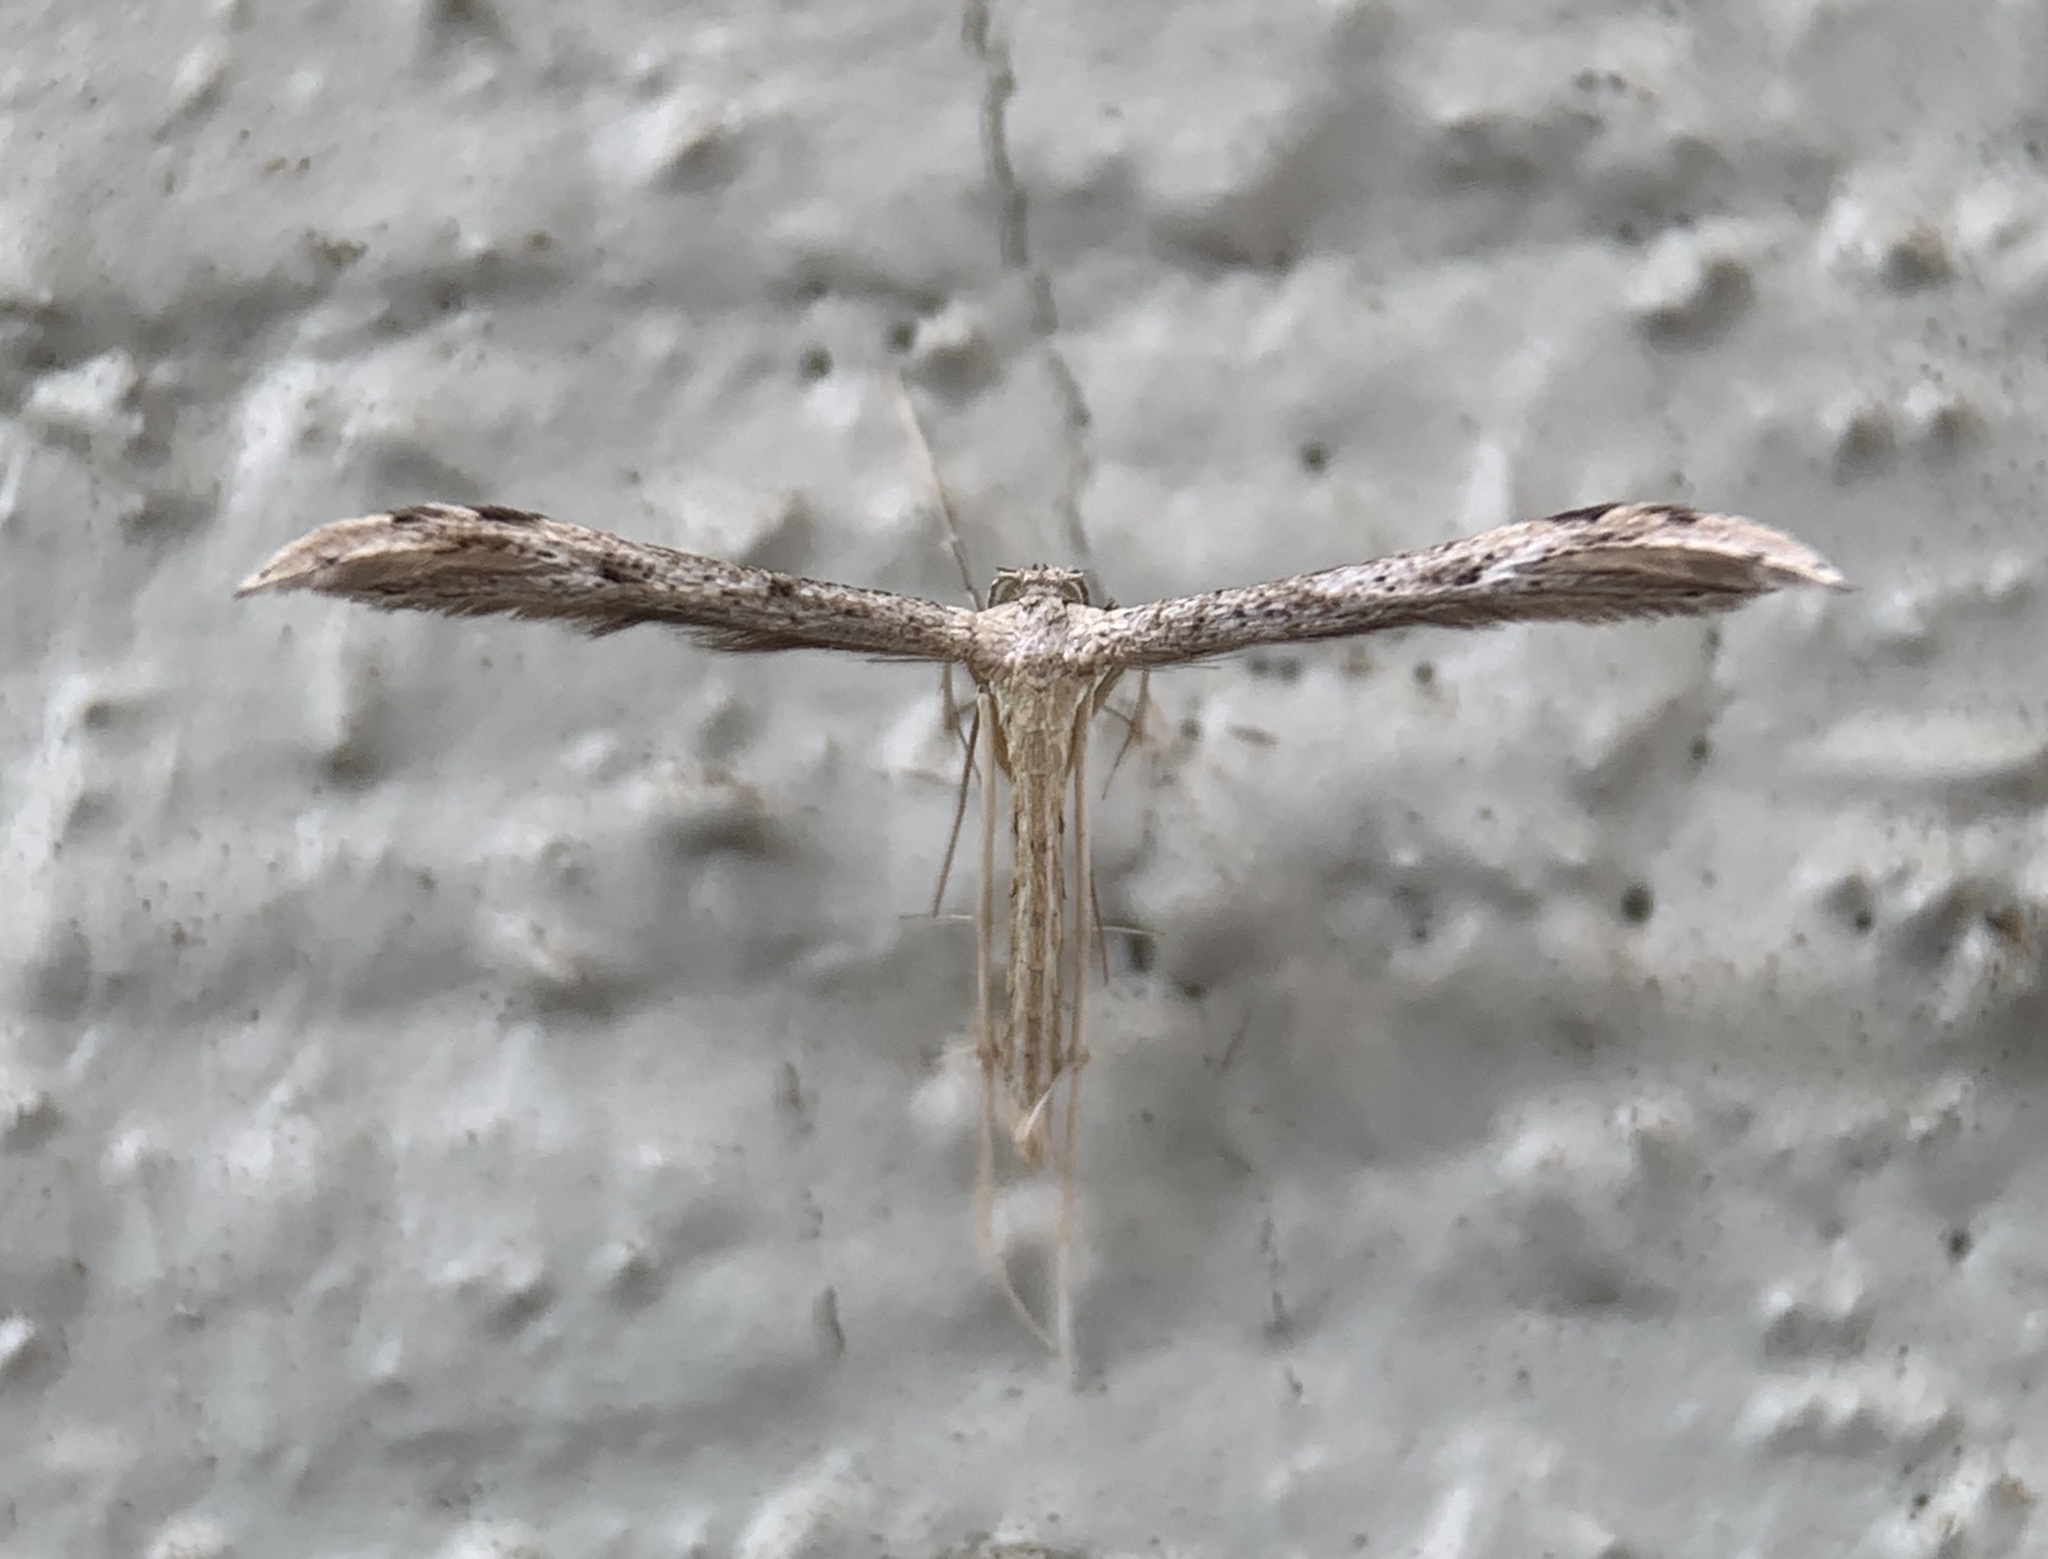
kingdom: Animalia
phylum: Arthropoda
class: Insecta
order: Lepidoptera
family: Pterophoridae
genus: Pselnophorus
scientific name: Pselnophorus belfragei
